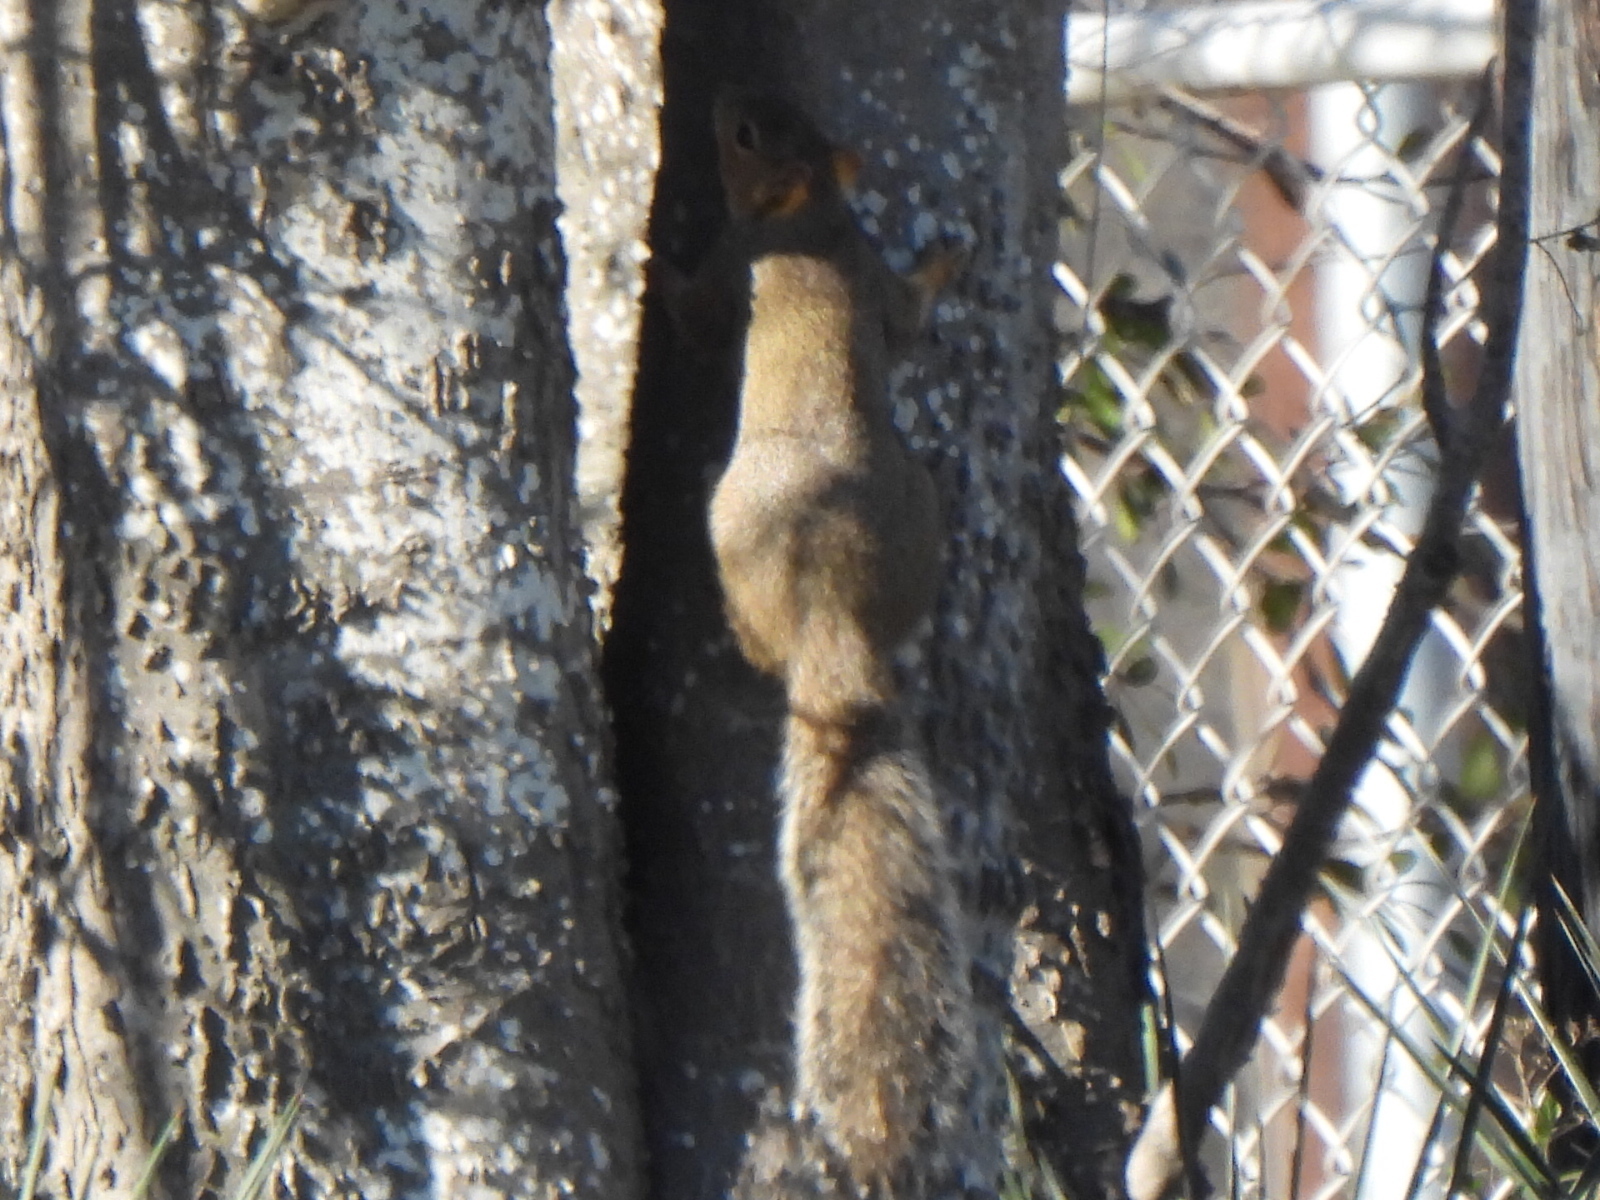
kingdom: Animalia
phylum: Chordata
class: Mammalia
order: Rodentia
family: Sciuridae
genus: Sciurus
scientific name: Sciurus niger
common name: Fox squirrel
